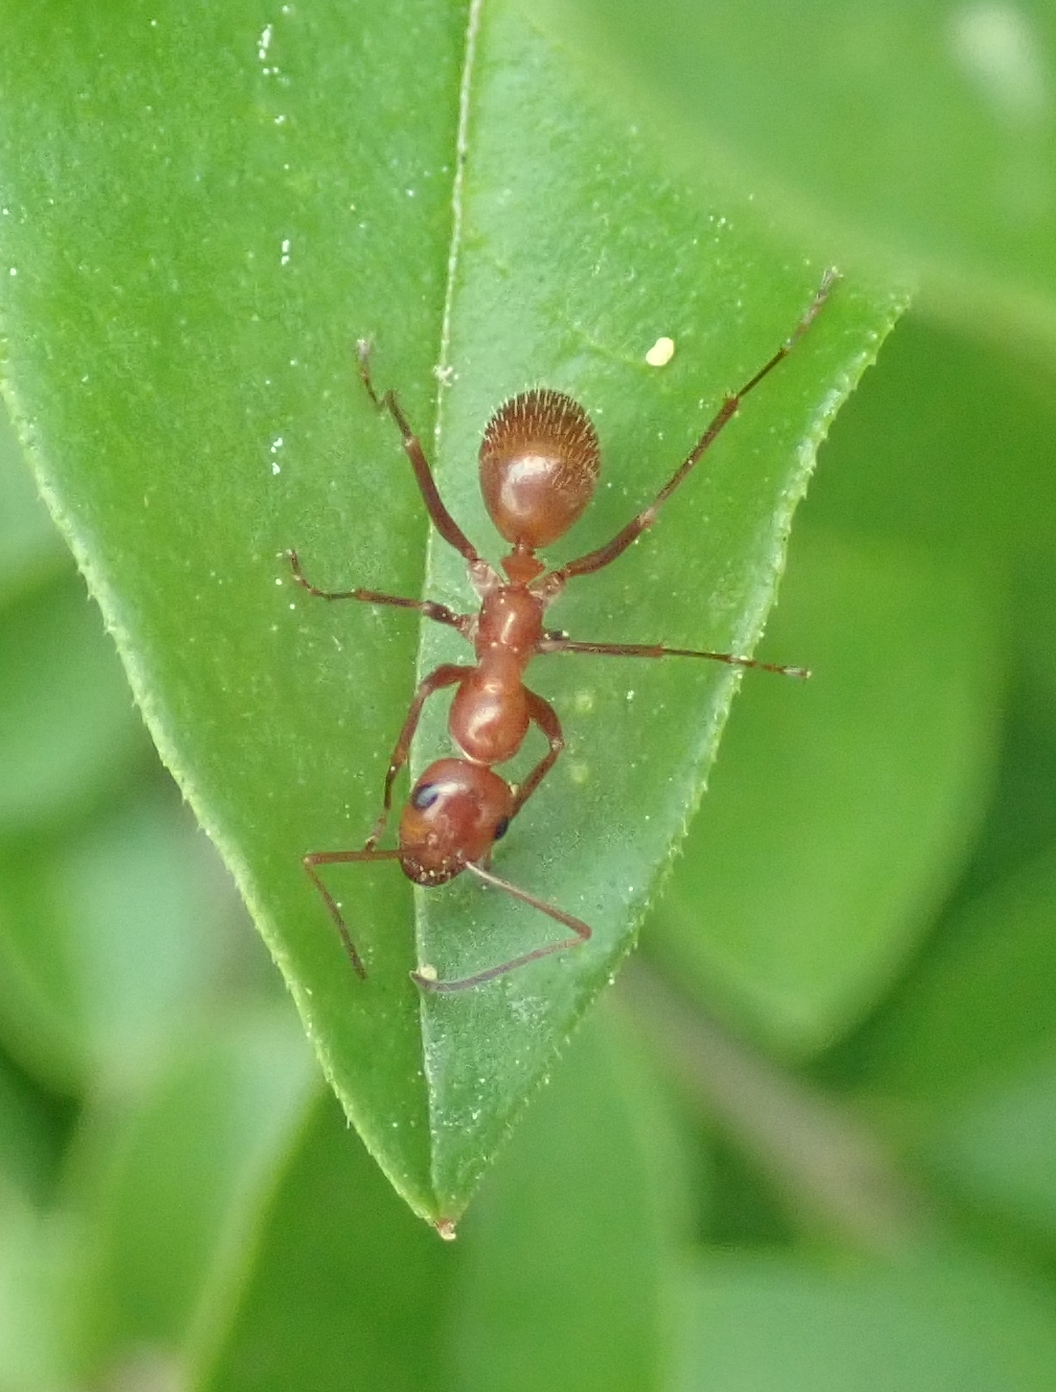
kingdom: Animalia
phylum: Arthropoda
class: Insecta
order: Hymenoptera
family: Formicidae
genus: Formica
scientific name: Formica dolosa
